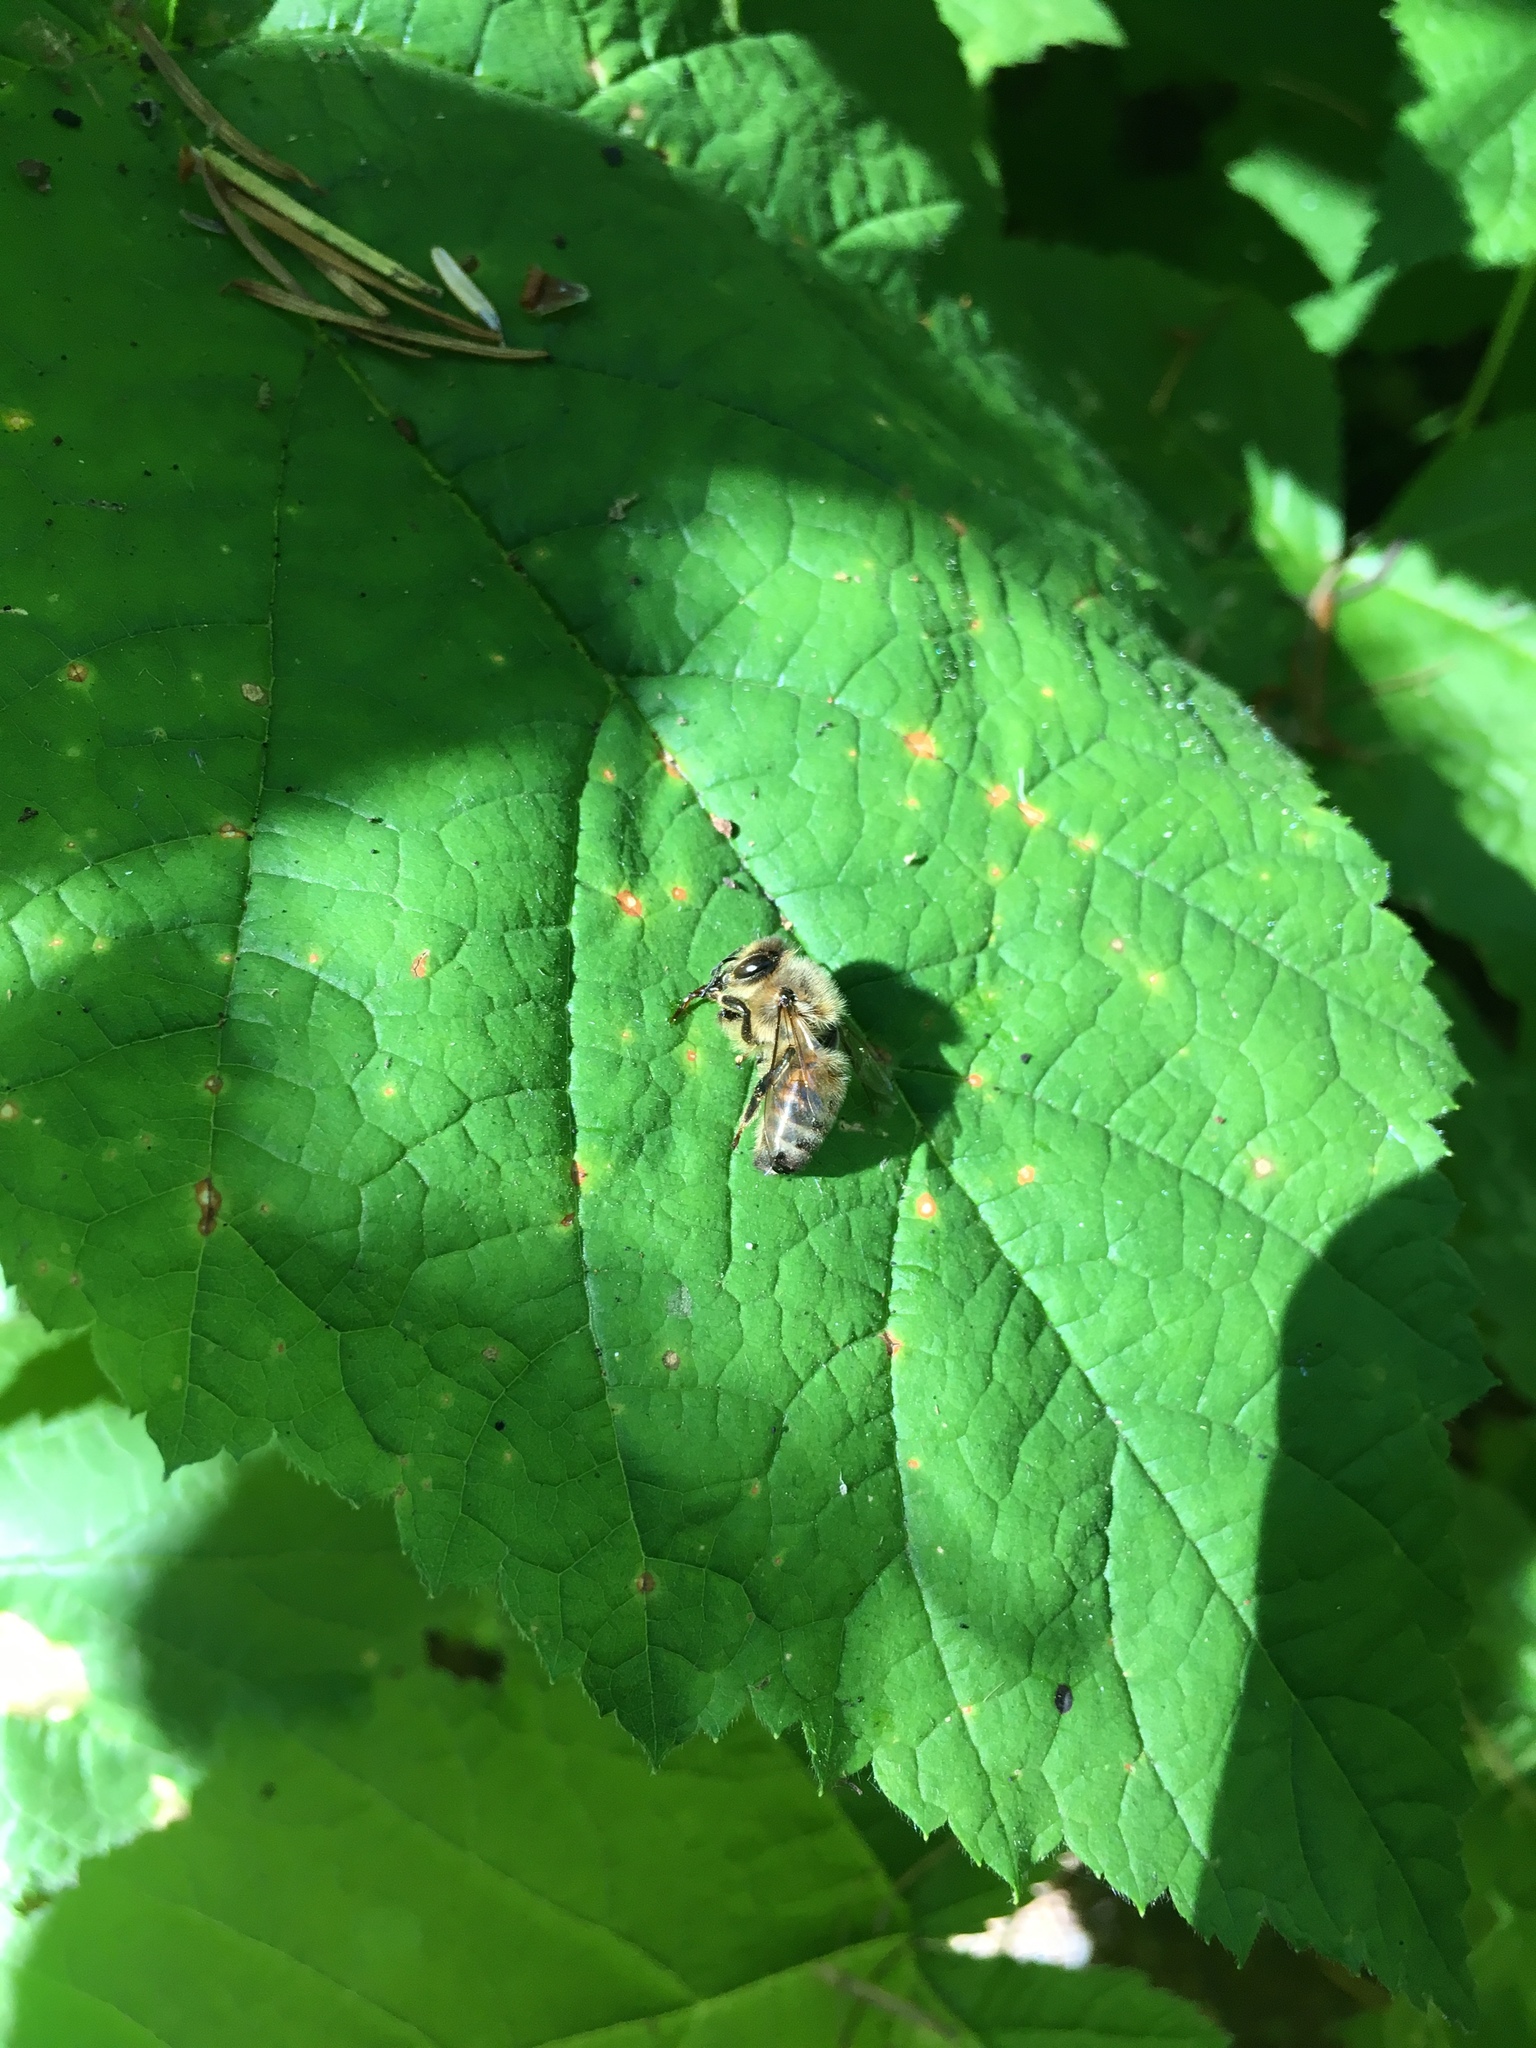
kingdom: Animalia
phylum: Arthropoda
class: Insecta
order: Hymenoptera
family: Apidae
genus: Apis
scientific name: Apis mellifera
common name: Honey bee
